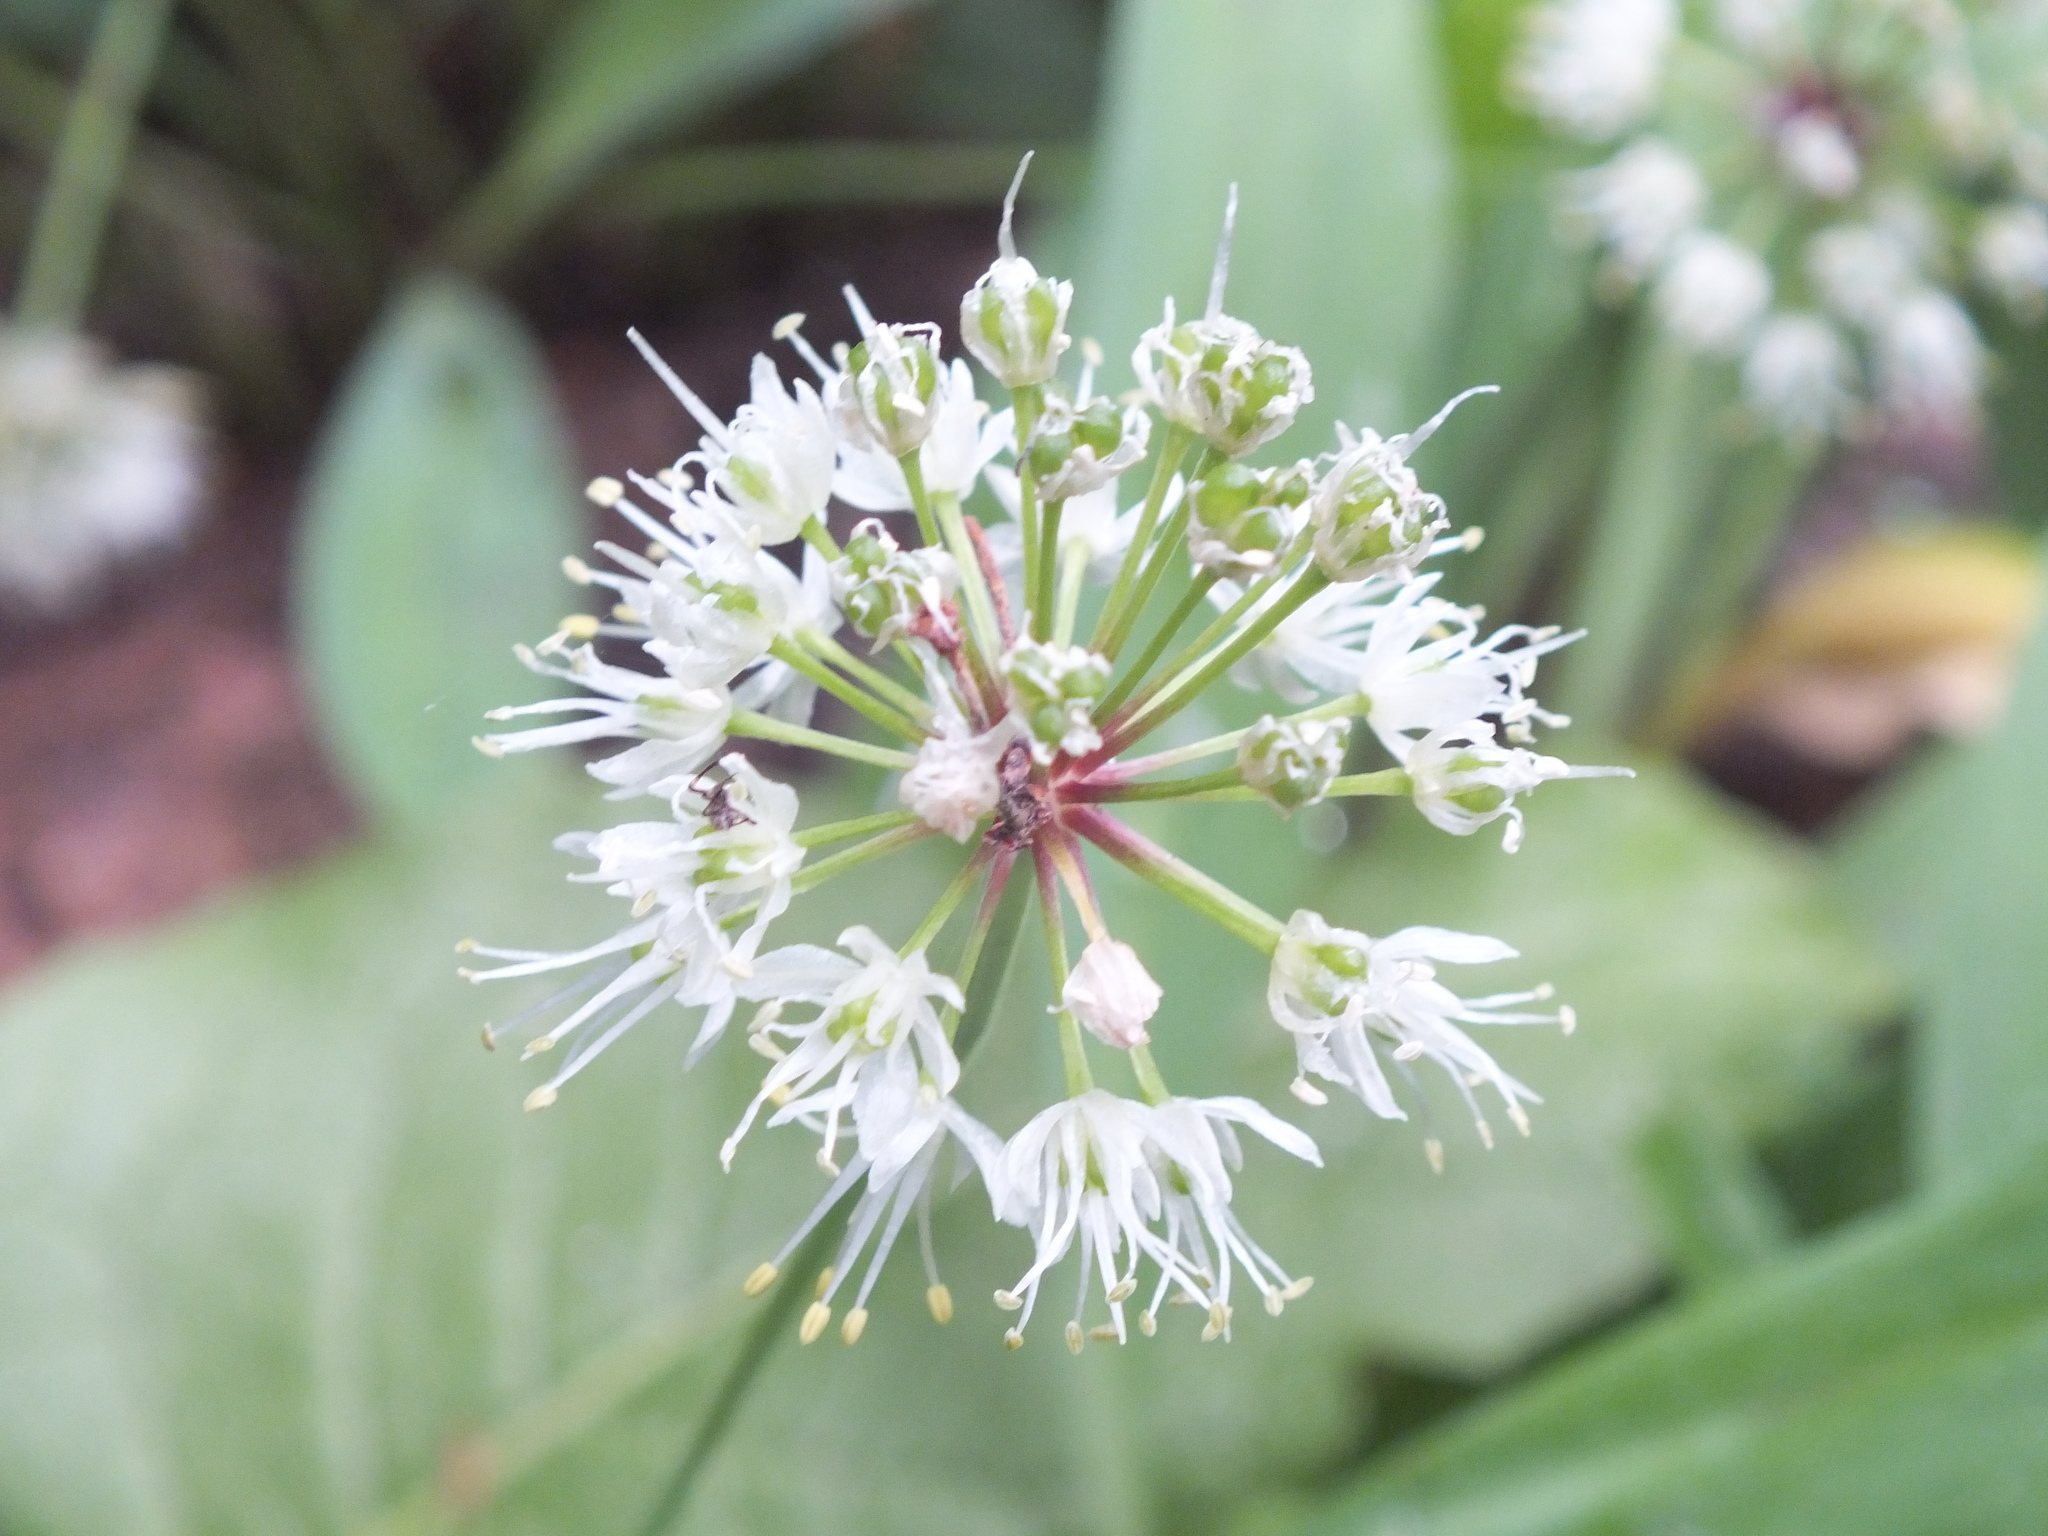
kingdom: Plantae
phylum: Tracheophyta
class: Liliopsida
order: Asparagales
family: Amaryllidaceae
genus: Allium
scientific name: Allium microdictyon
